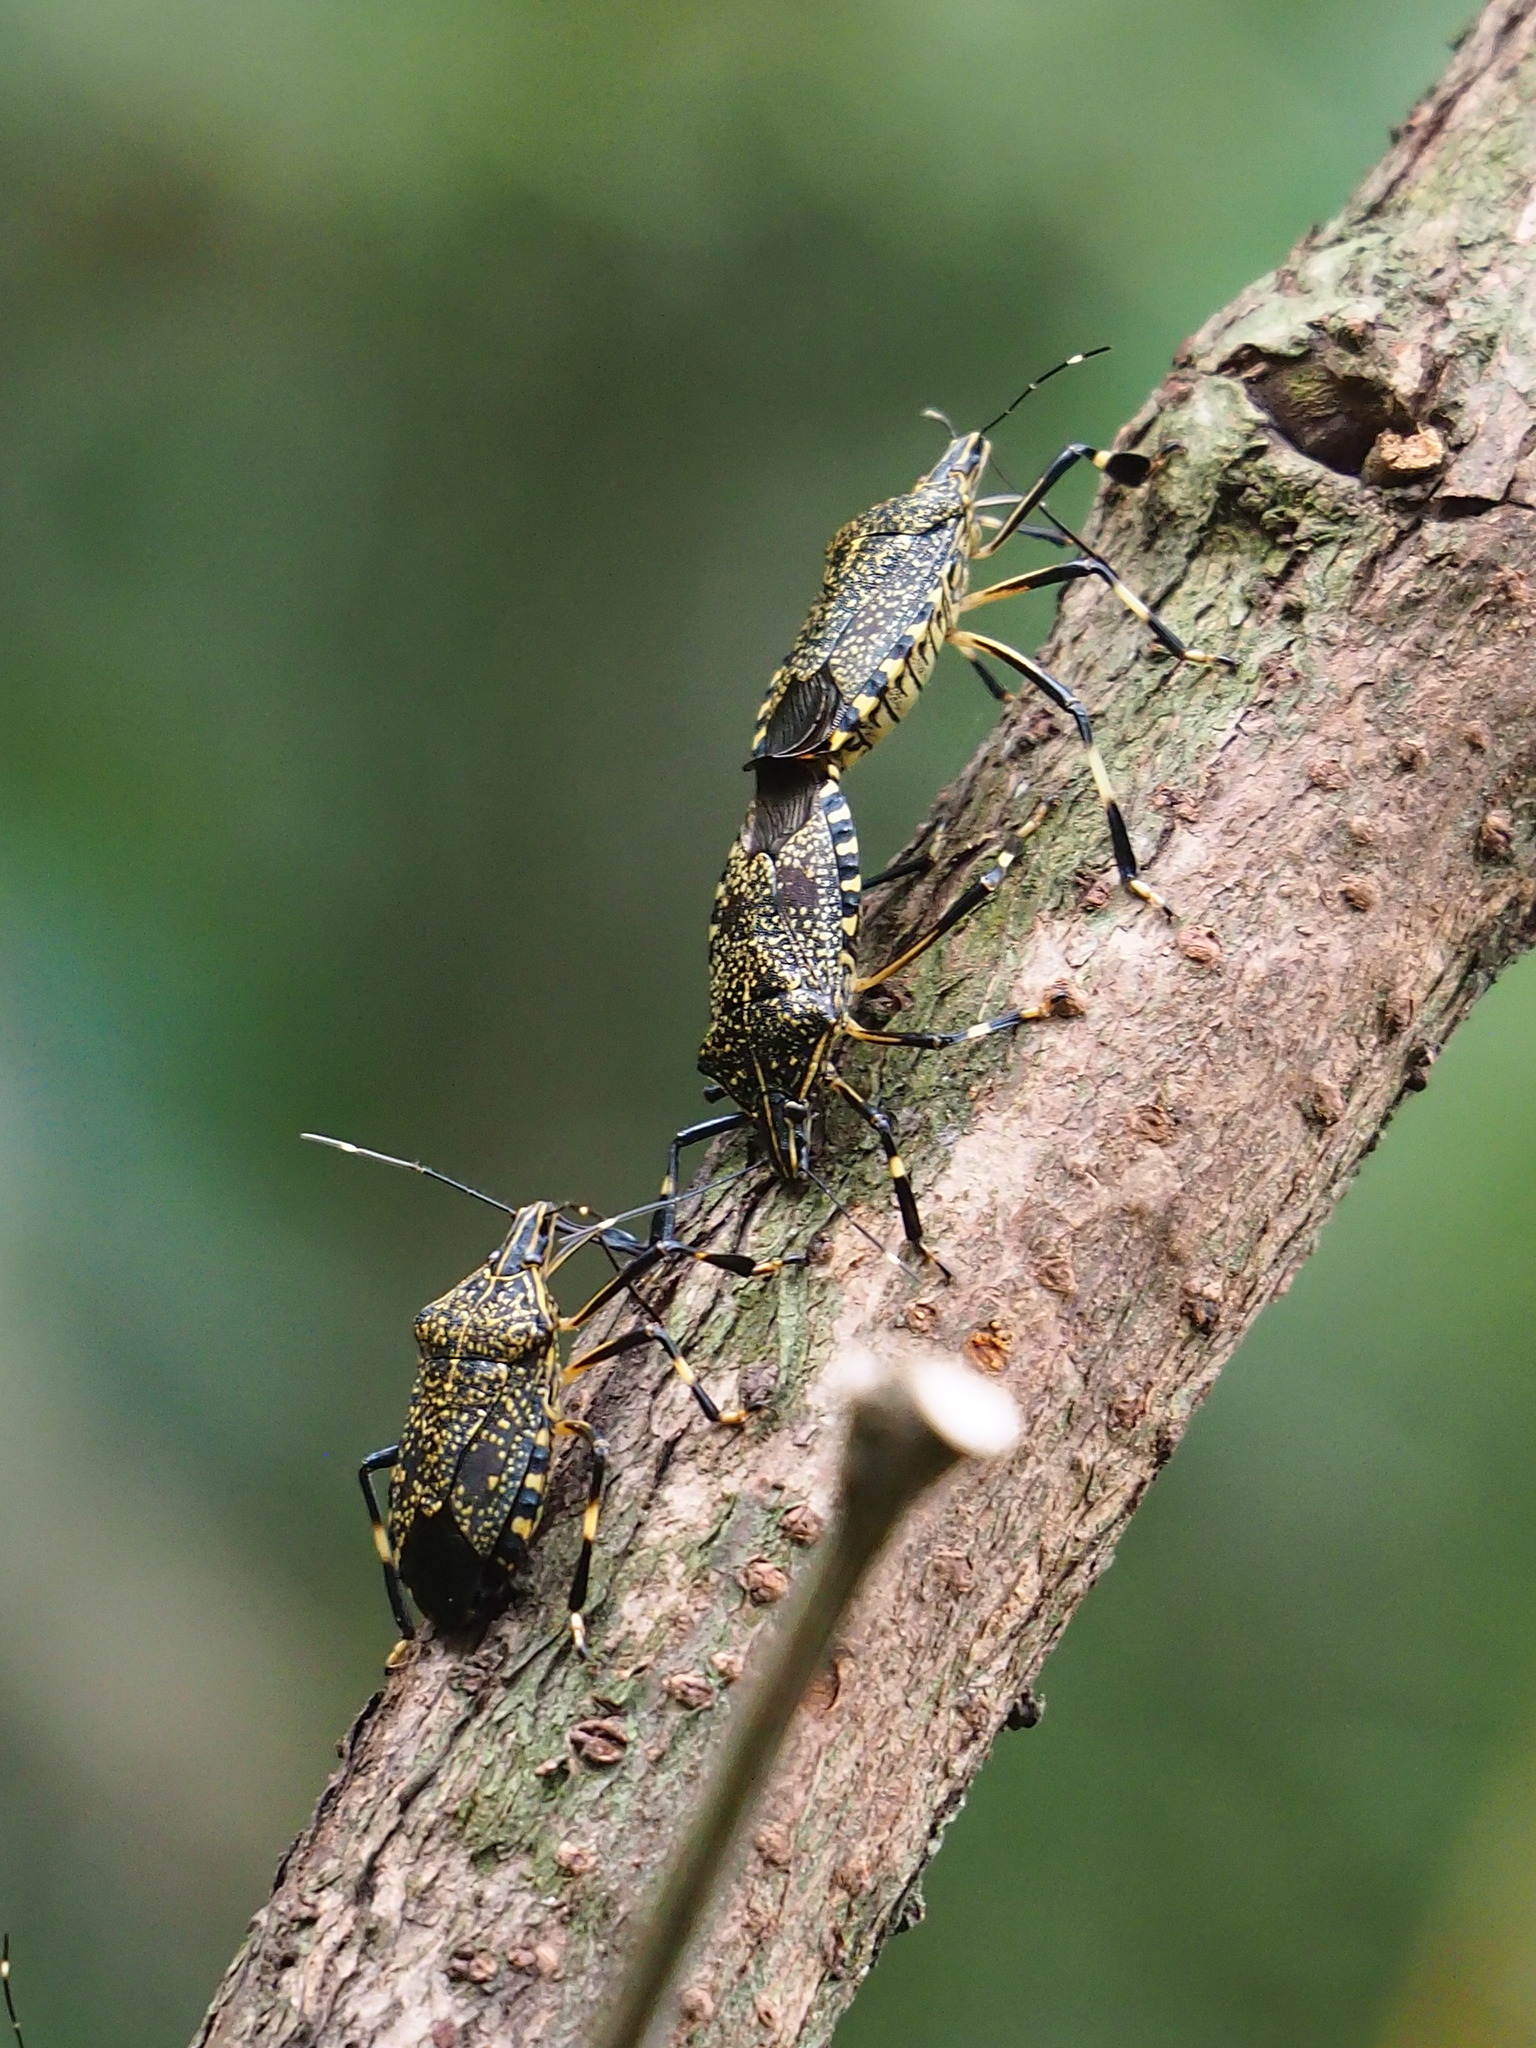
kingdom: Animalia
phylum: Arthropoda
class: Insecta
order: Hemiptera
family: Pentatomidae
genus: Erthesina
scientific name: Erthesina fullo
